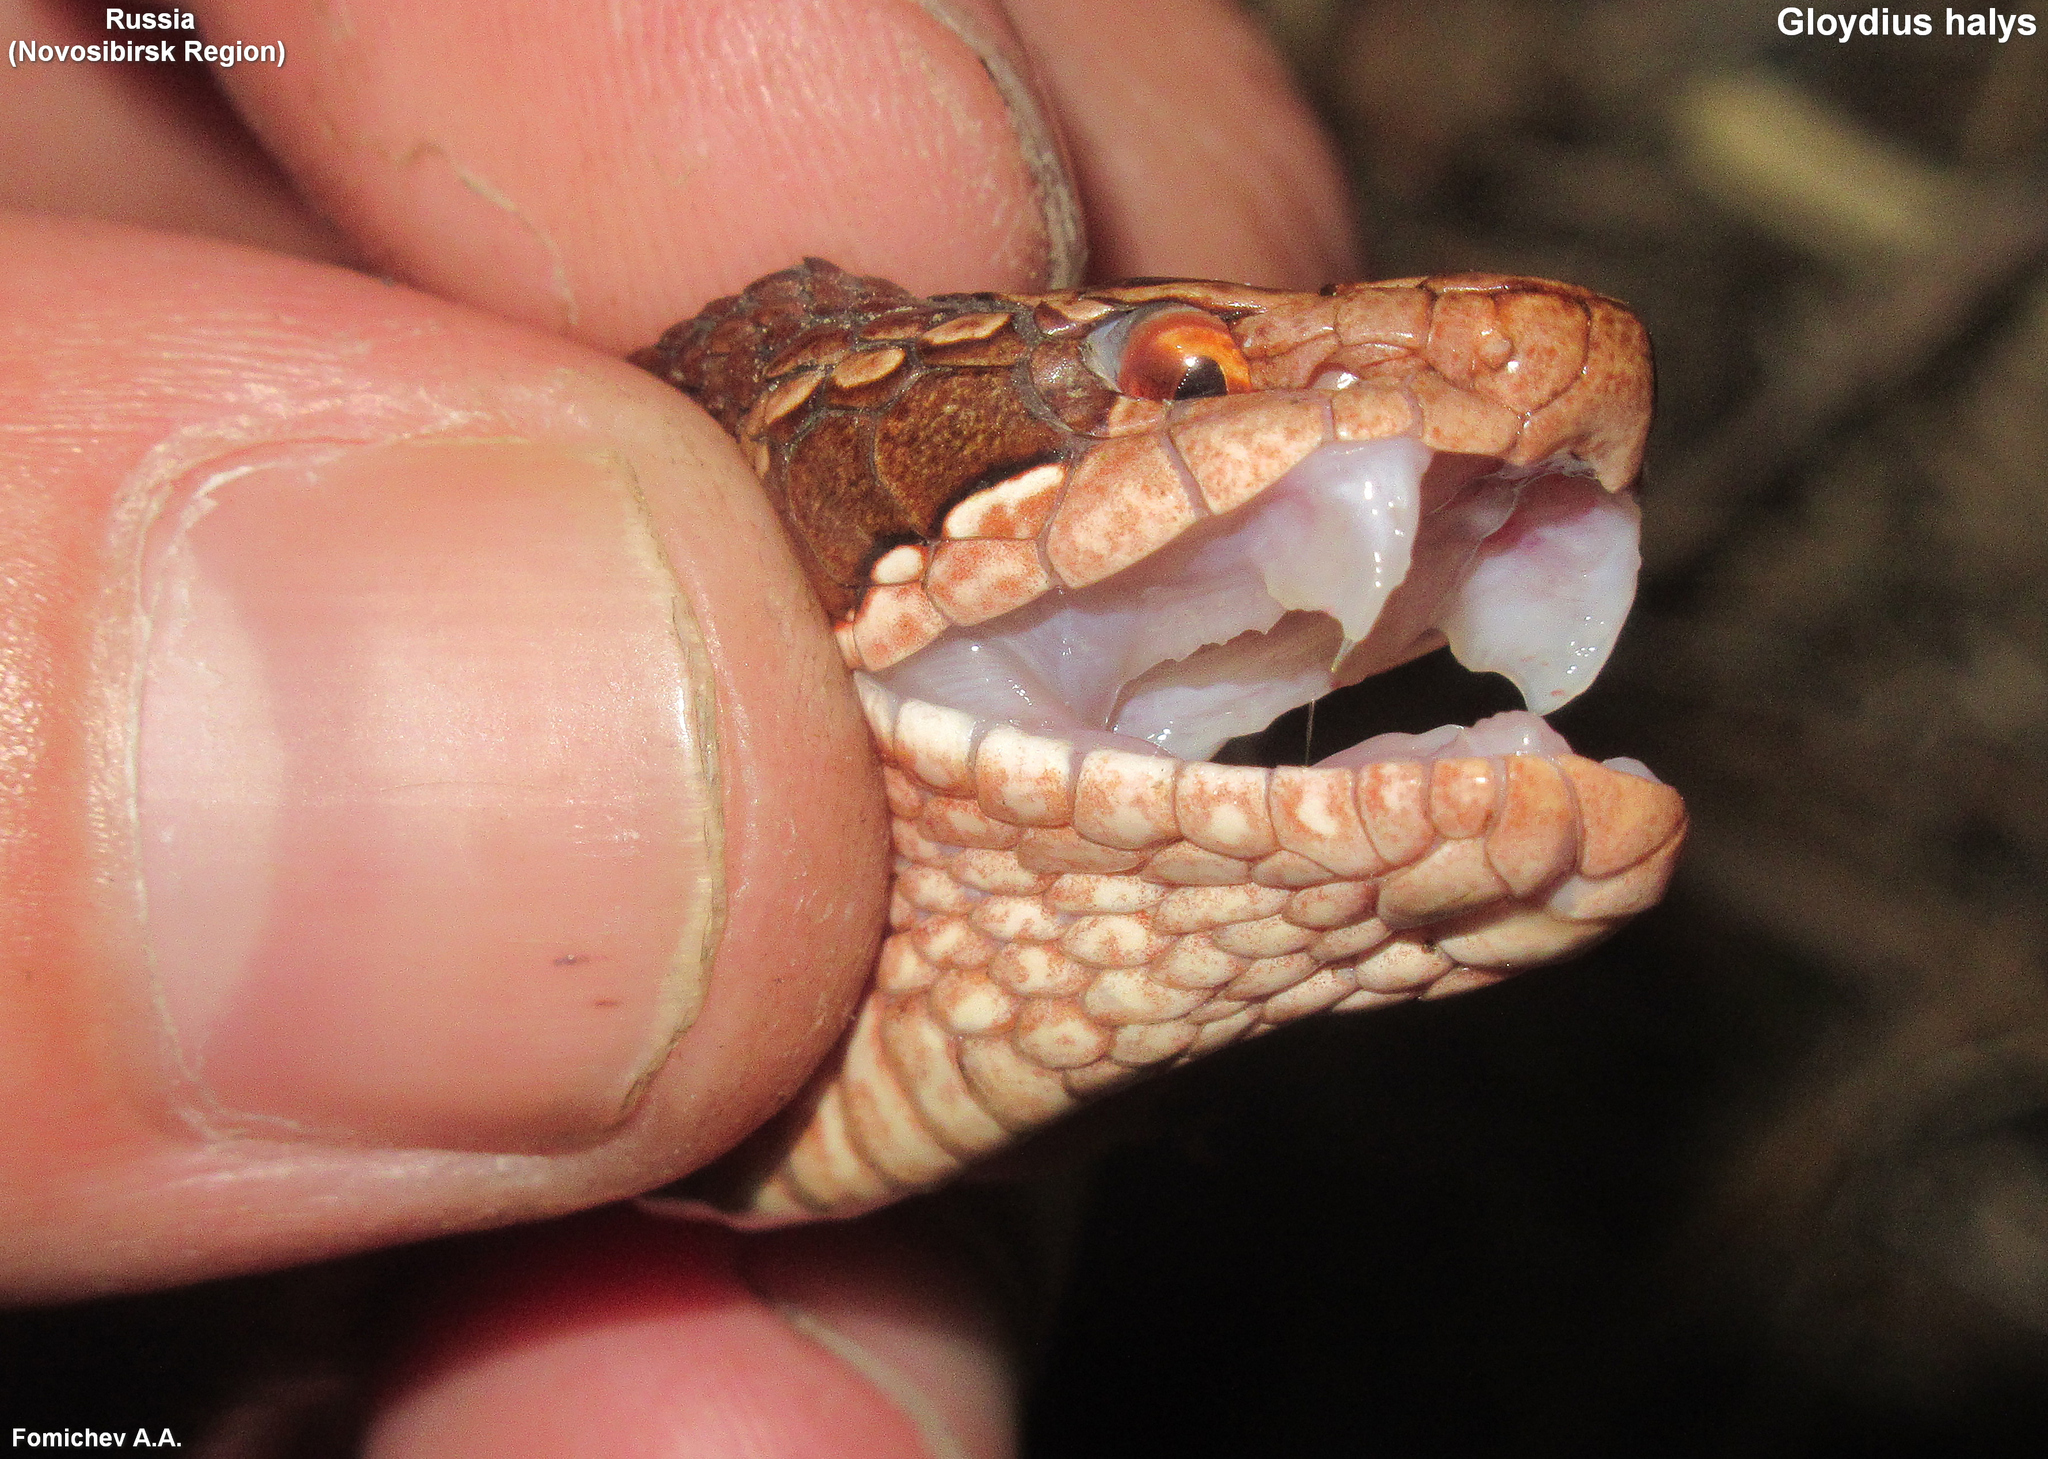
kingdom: Animalia
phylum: Chordata
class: Squamata
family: Viperidae
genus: Gloydius
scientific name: Gloydius halys
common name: Halys pit viper
